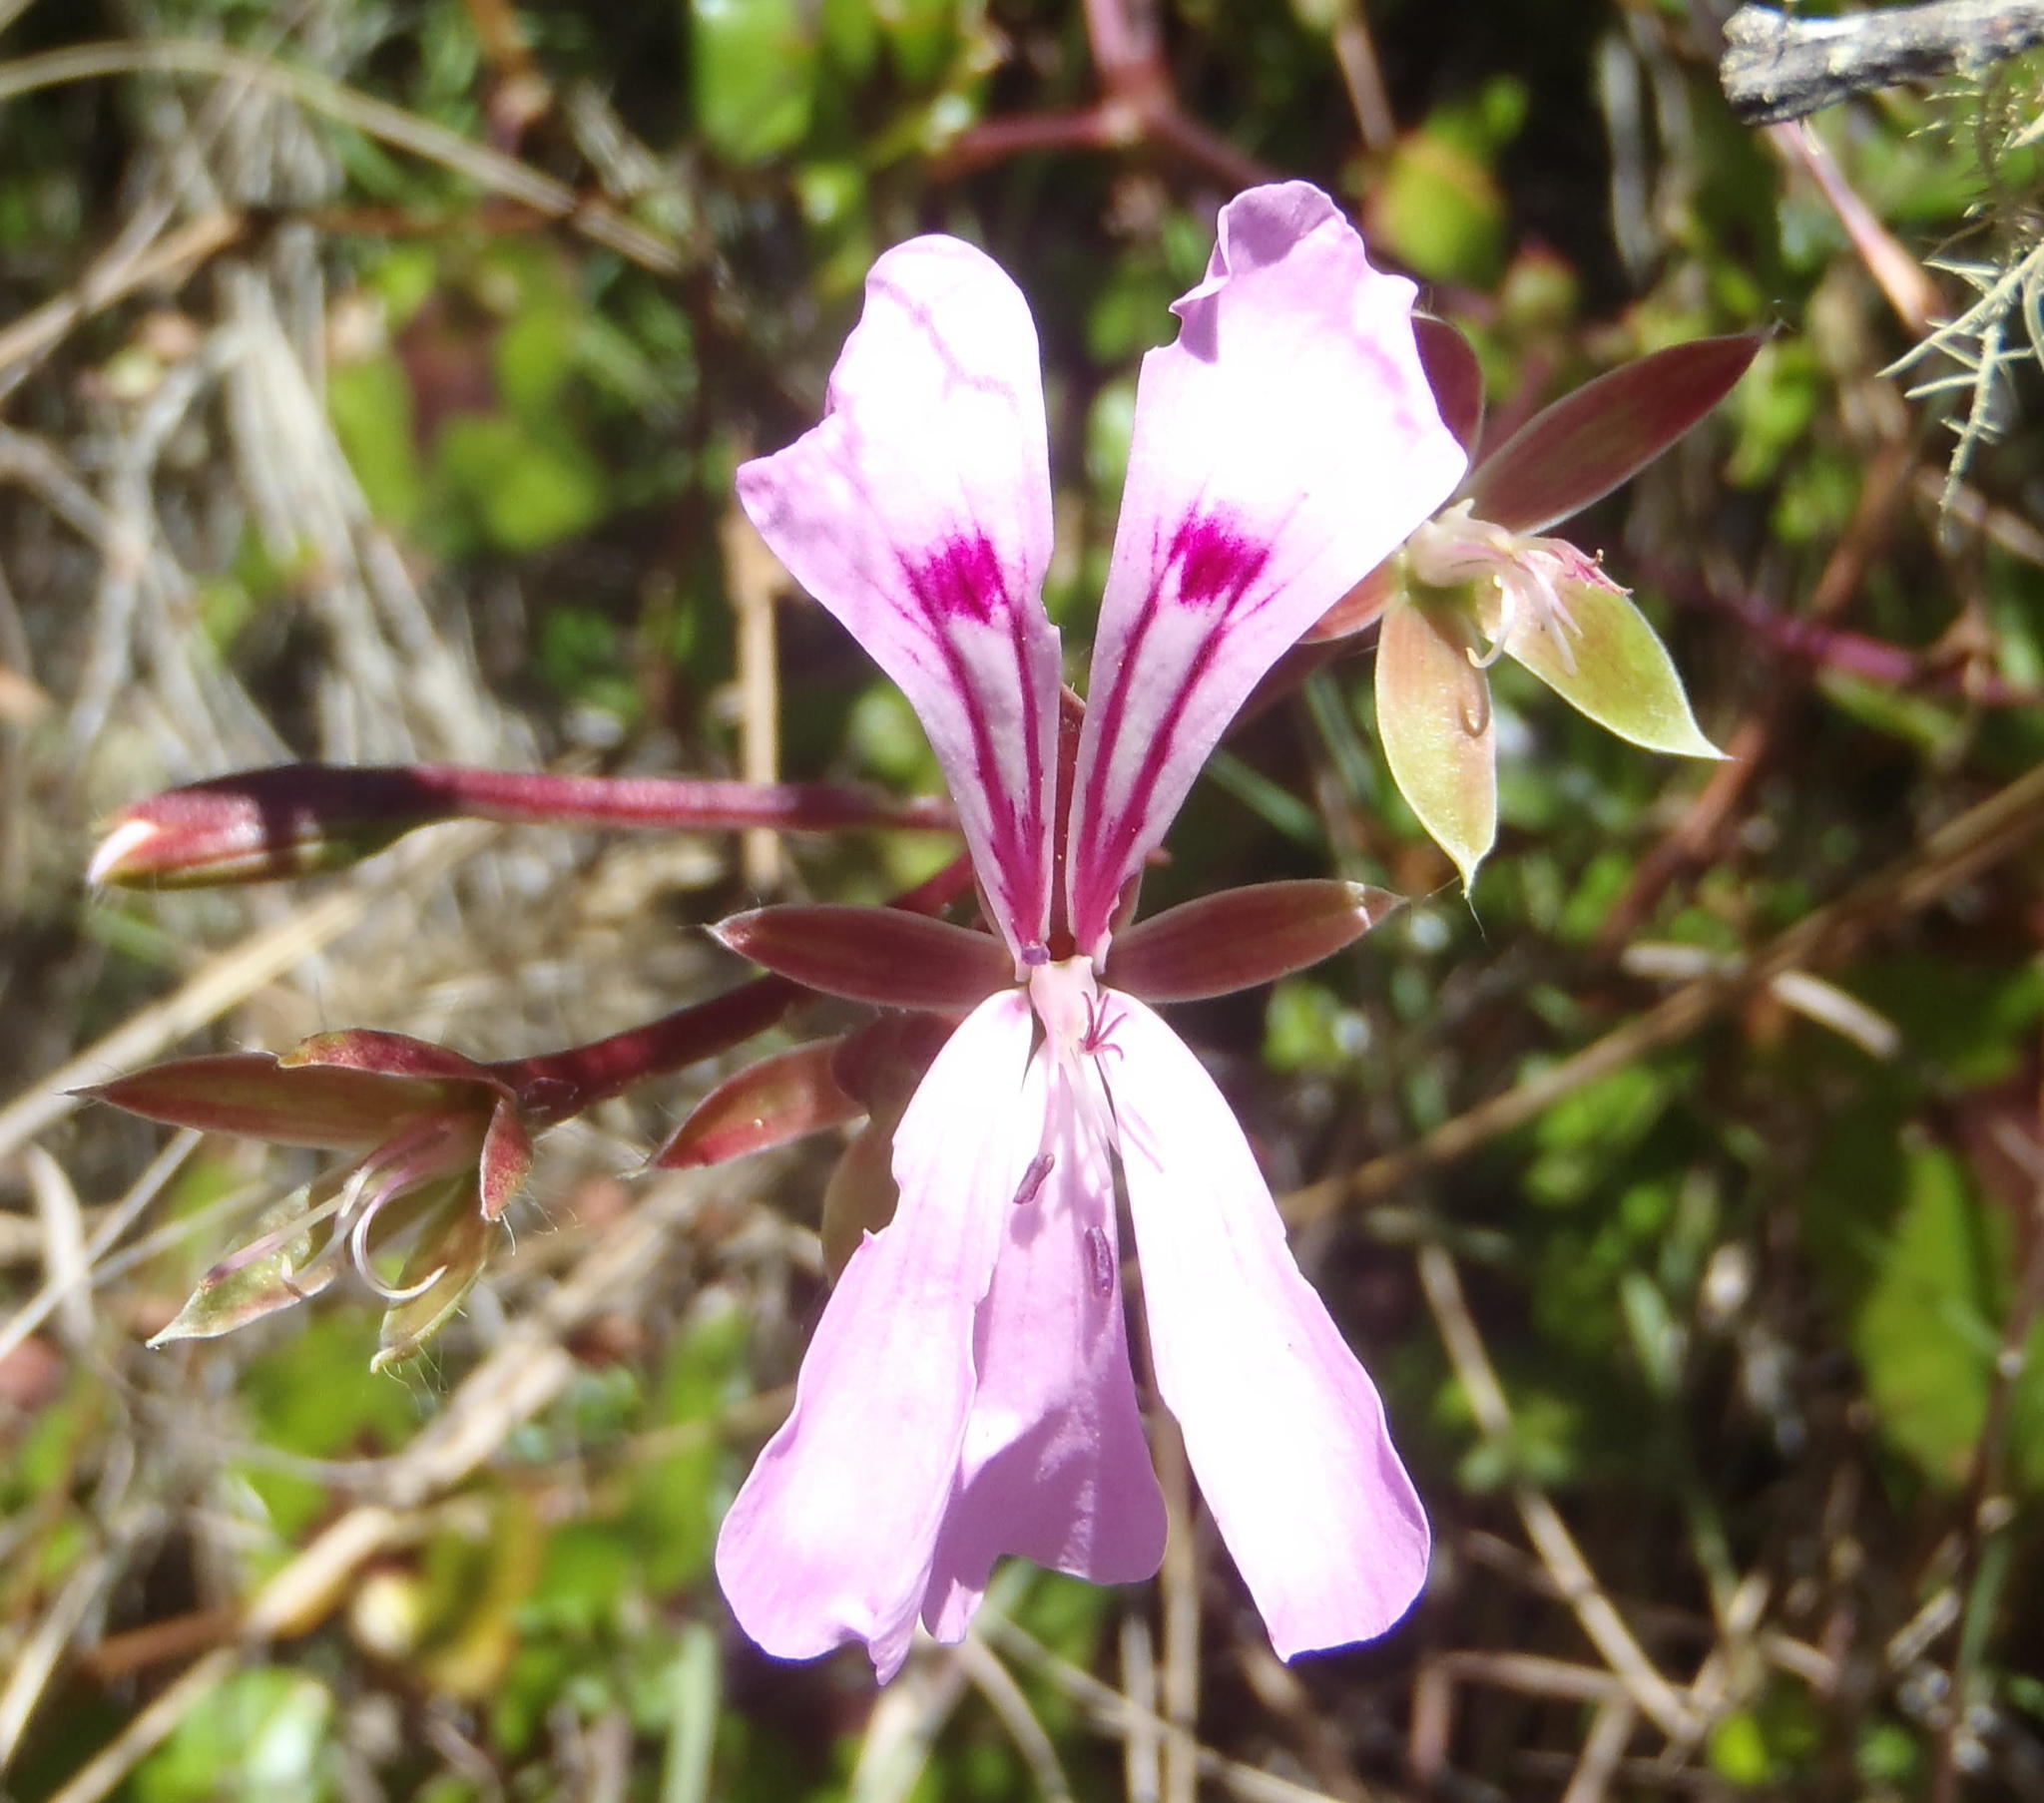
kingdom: Plantae
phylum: Tracheophyta
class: Magnoliopsida
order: Geraniales
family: Geraniaceae
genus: Pelargonium
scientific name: Pelargonium peltatum
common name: Ivyleaf geranium
